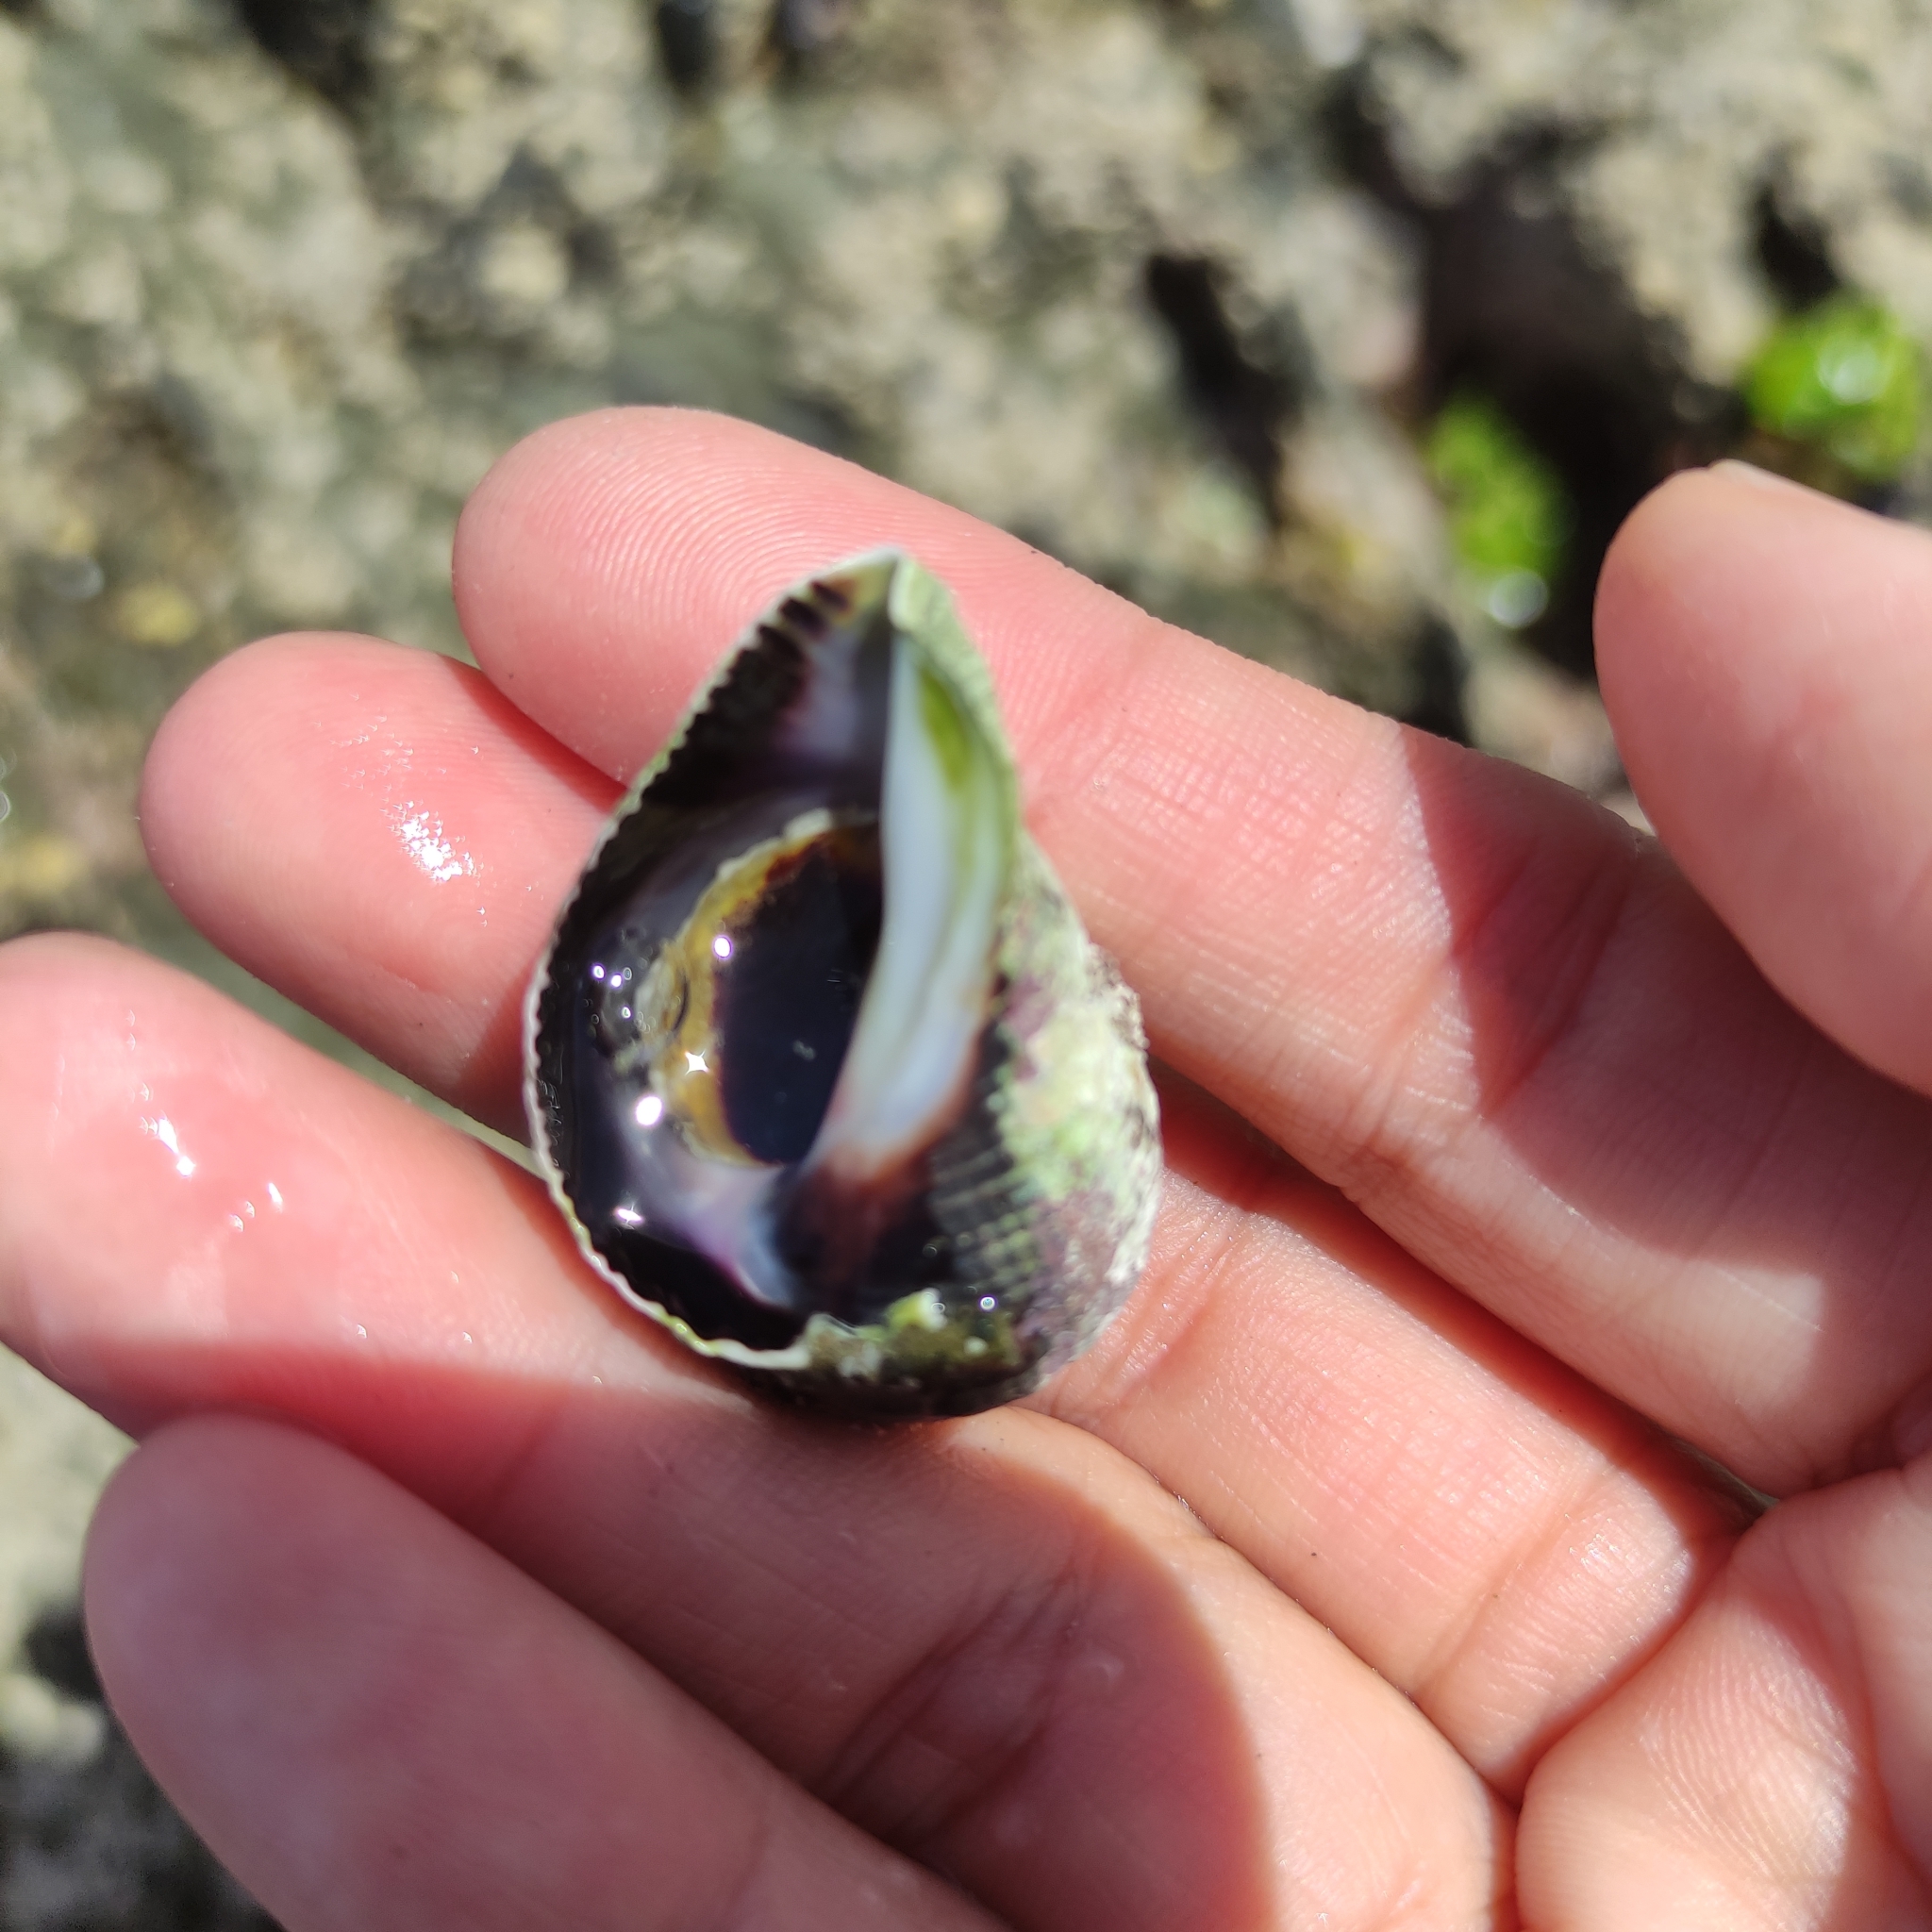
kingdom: Animalia
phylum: Mollusca
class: Gastropoda
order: Neogastropoda
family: Muricidae
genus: Haustrum
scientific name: Haustrum haustorium
